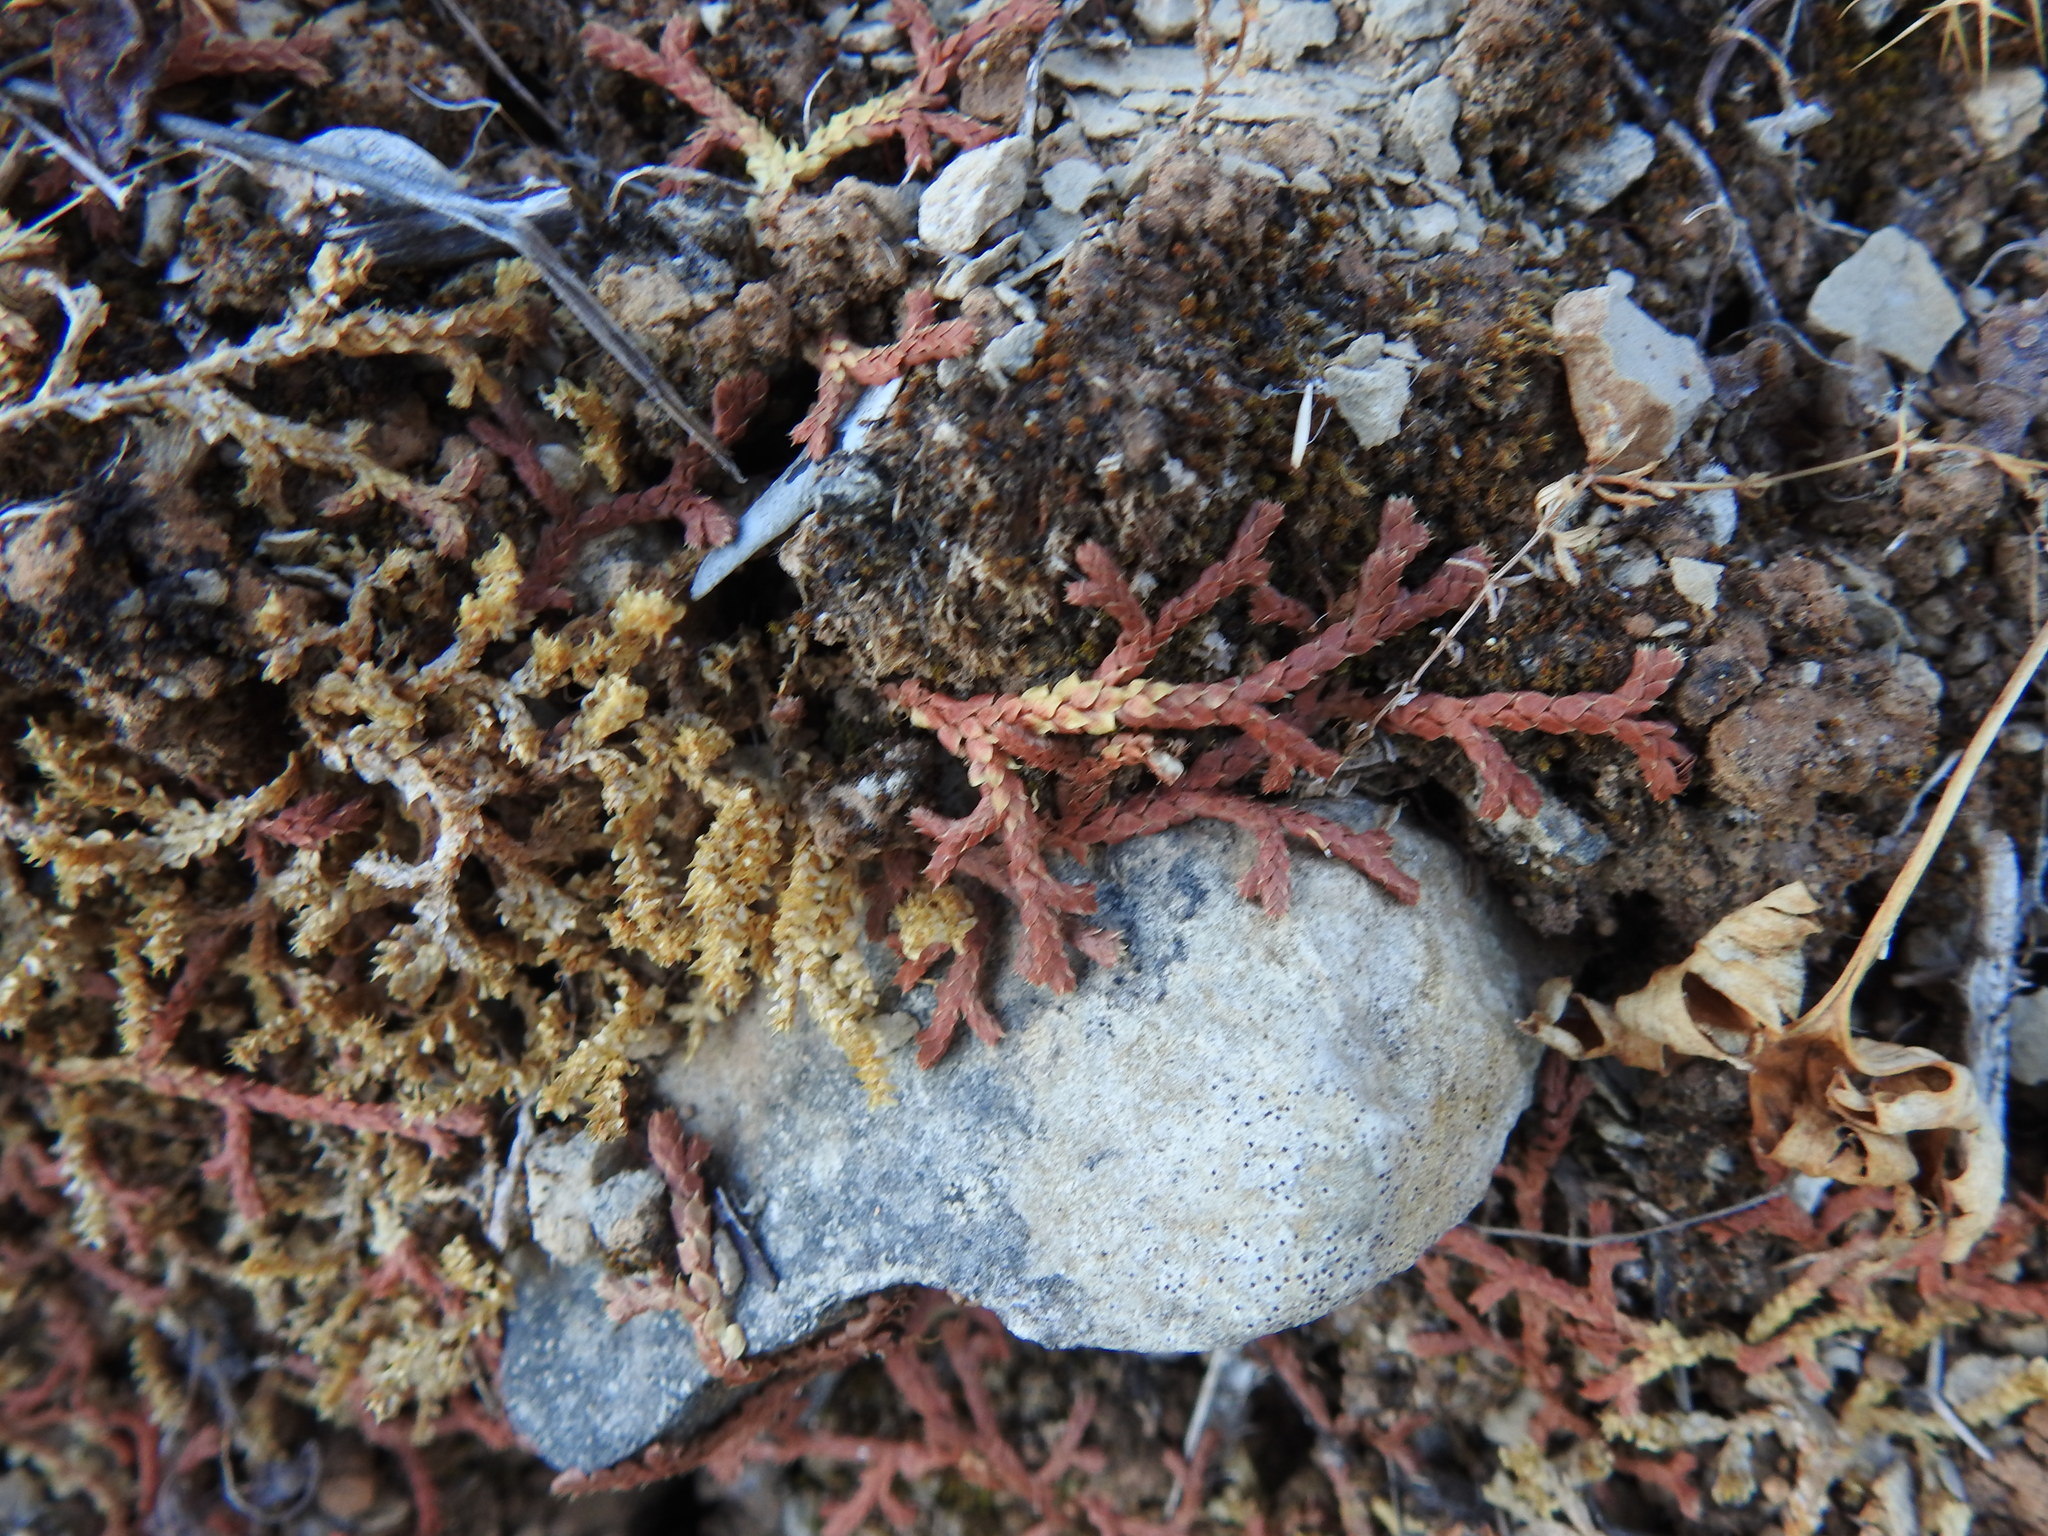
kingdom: Plantae
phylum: Tracheophyta
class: Lycopodiopsida
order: Selaginellales
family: Selaginellaceae
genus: Selaginella
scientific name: Selaginella denticulata
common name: Toothed-leaved clubmoss
